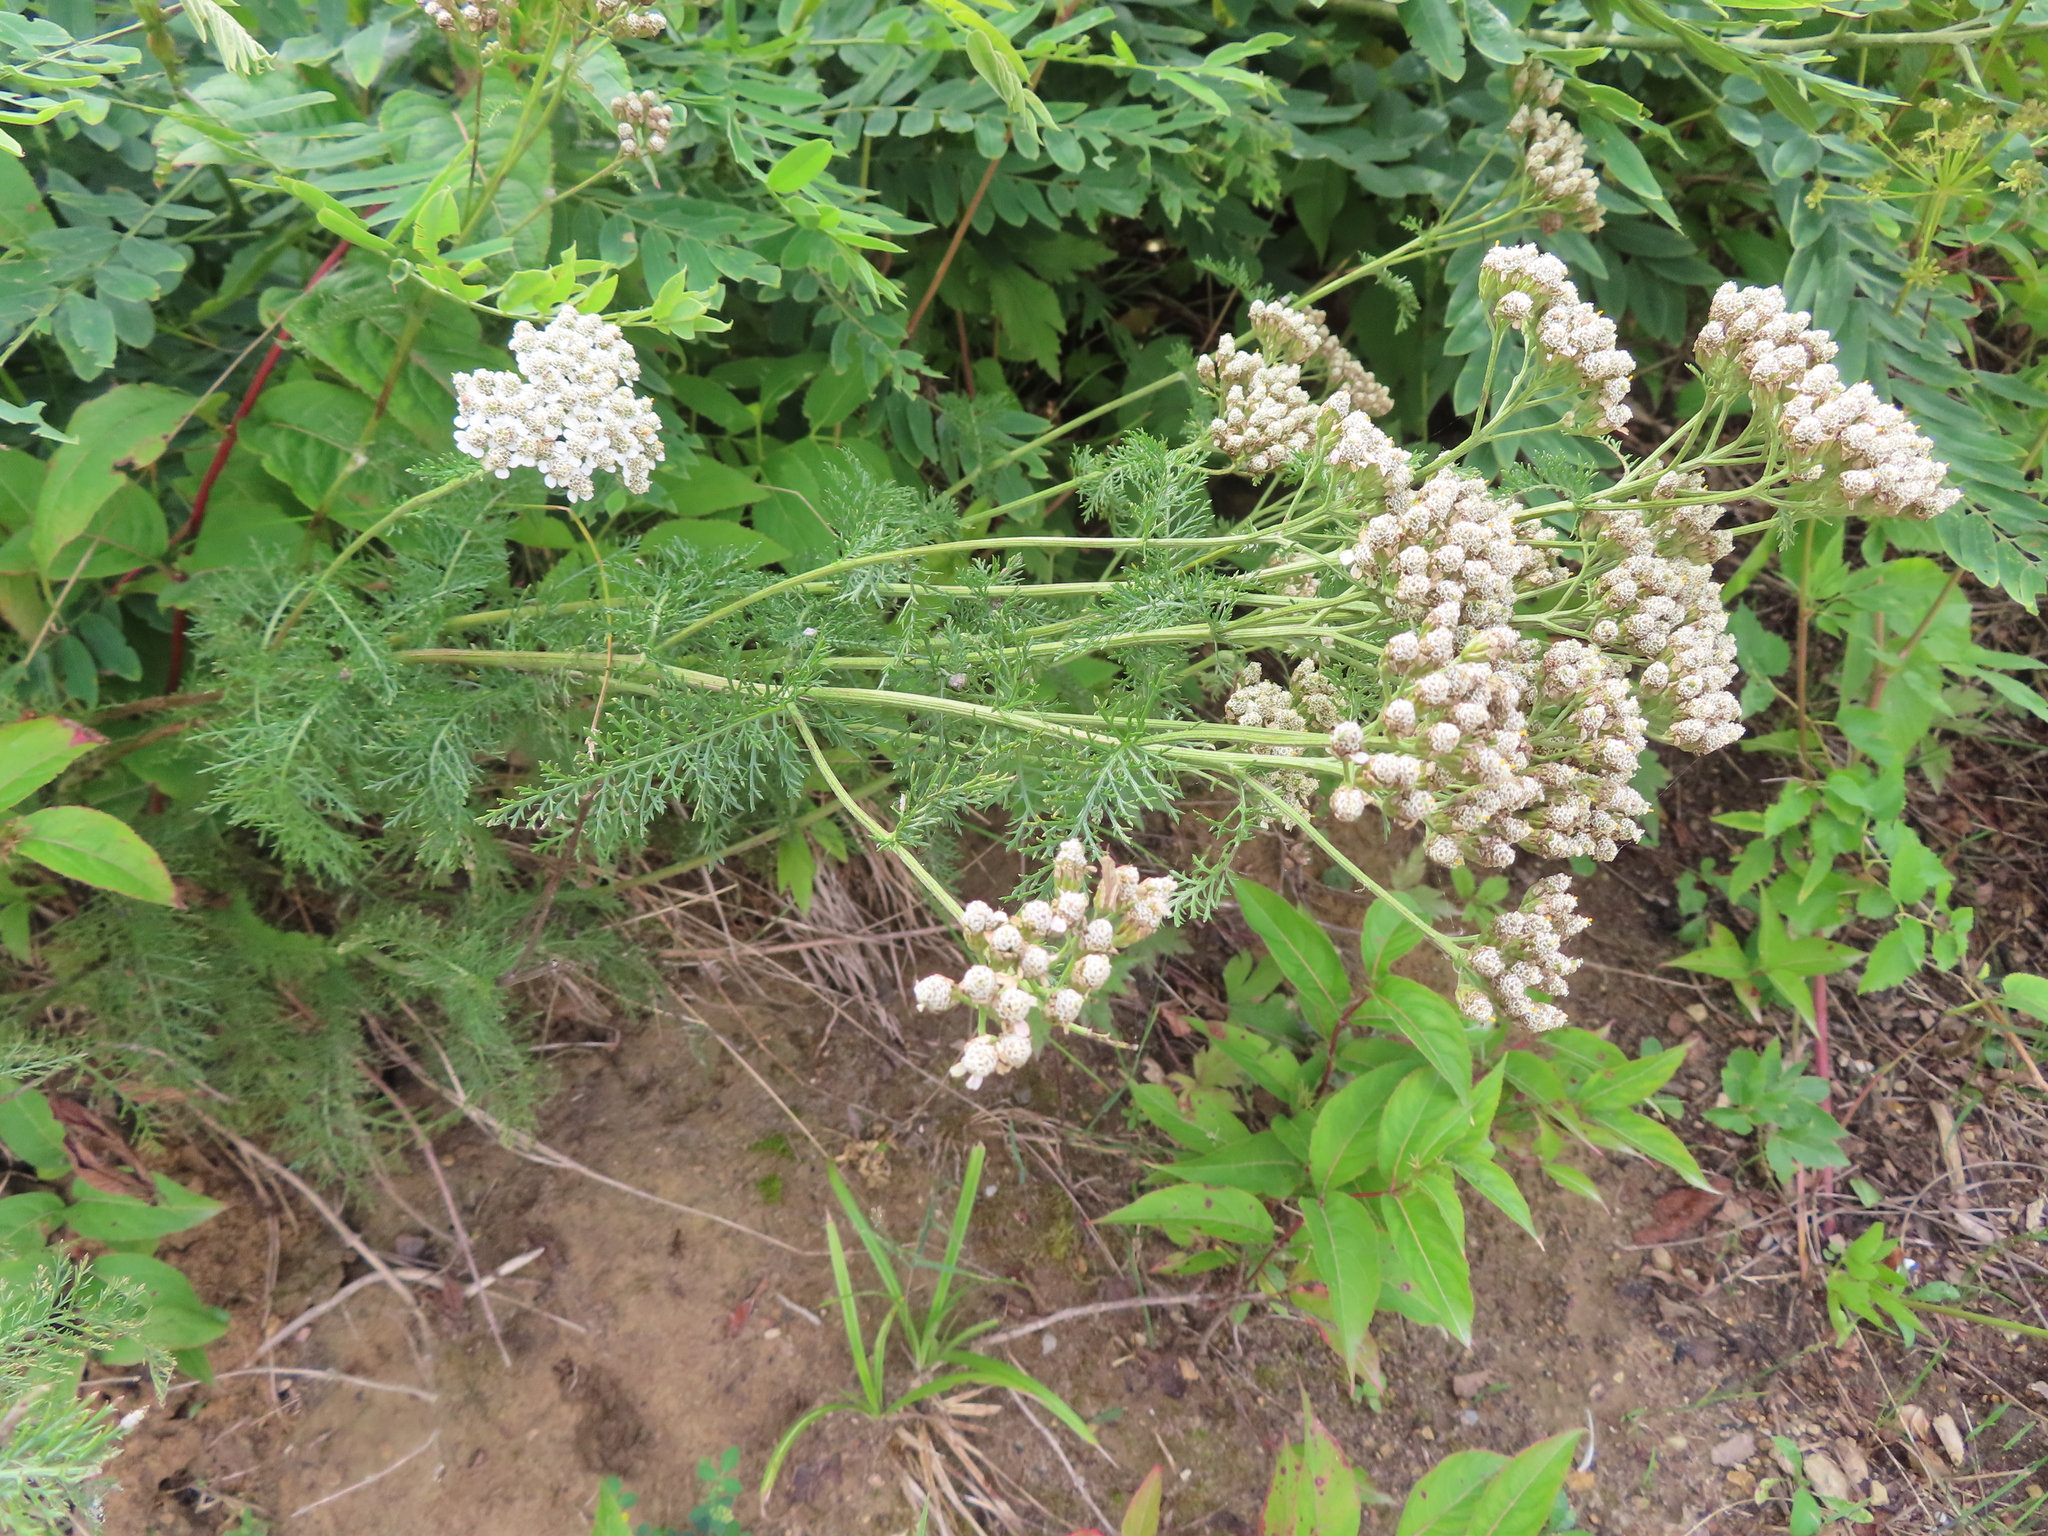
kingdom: Plantae
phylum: Tracheophyta
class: Magnoliopsida
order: Asterales
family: Asteraceae
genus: Achillea
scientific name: Achillea millefolium
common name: Yarrow
